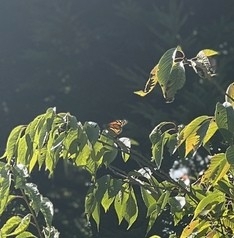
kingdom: Animalia
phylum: Arthropoda
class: Insecta
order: Lepidoptera
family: Nymphalidae
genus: Danaus
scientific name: Danaus plexippus
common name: Monarch
